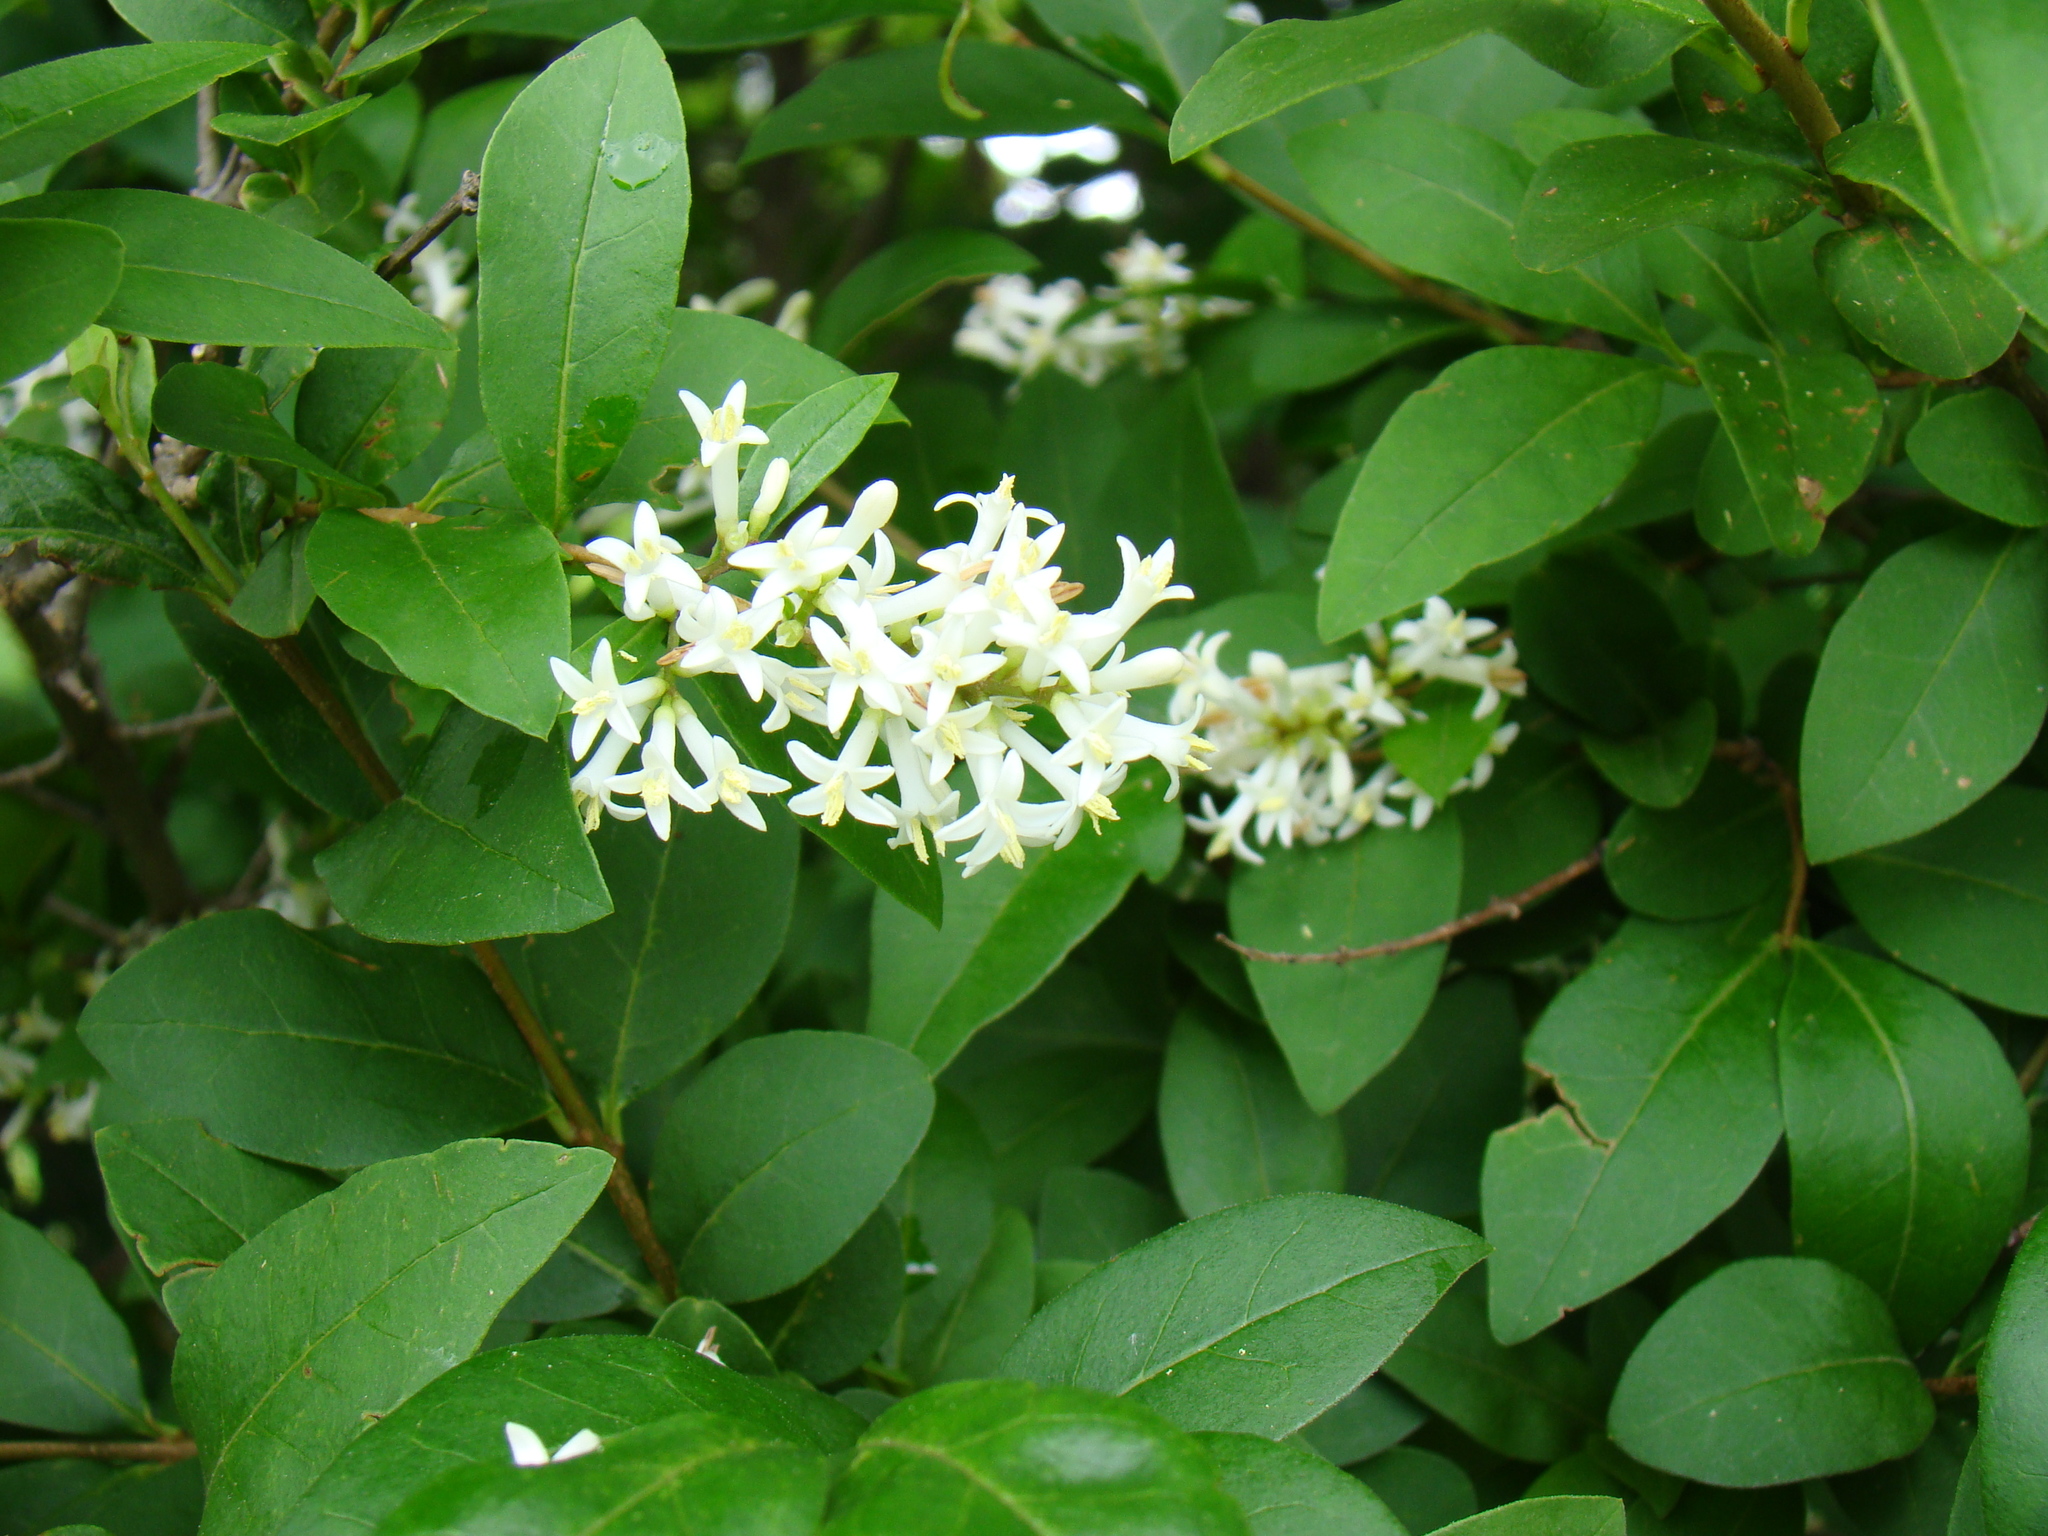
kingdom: Plantae
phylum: Tracheophyta
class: Magnoliopsida
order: Lamiales
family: Oleaceae
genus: Ligustrum
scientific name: Ligustrum obtusifolium
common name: Border privet
